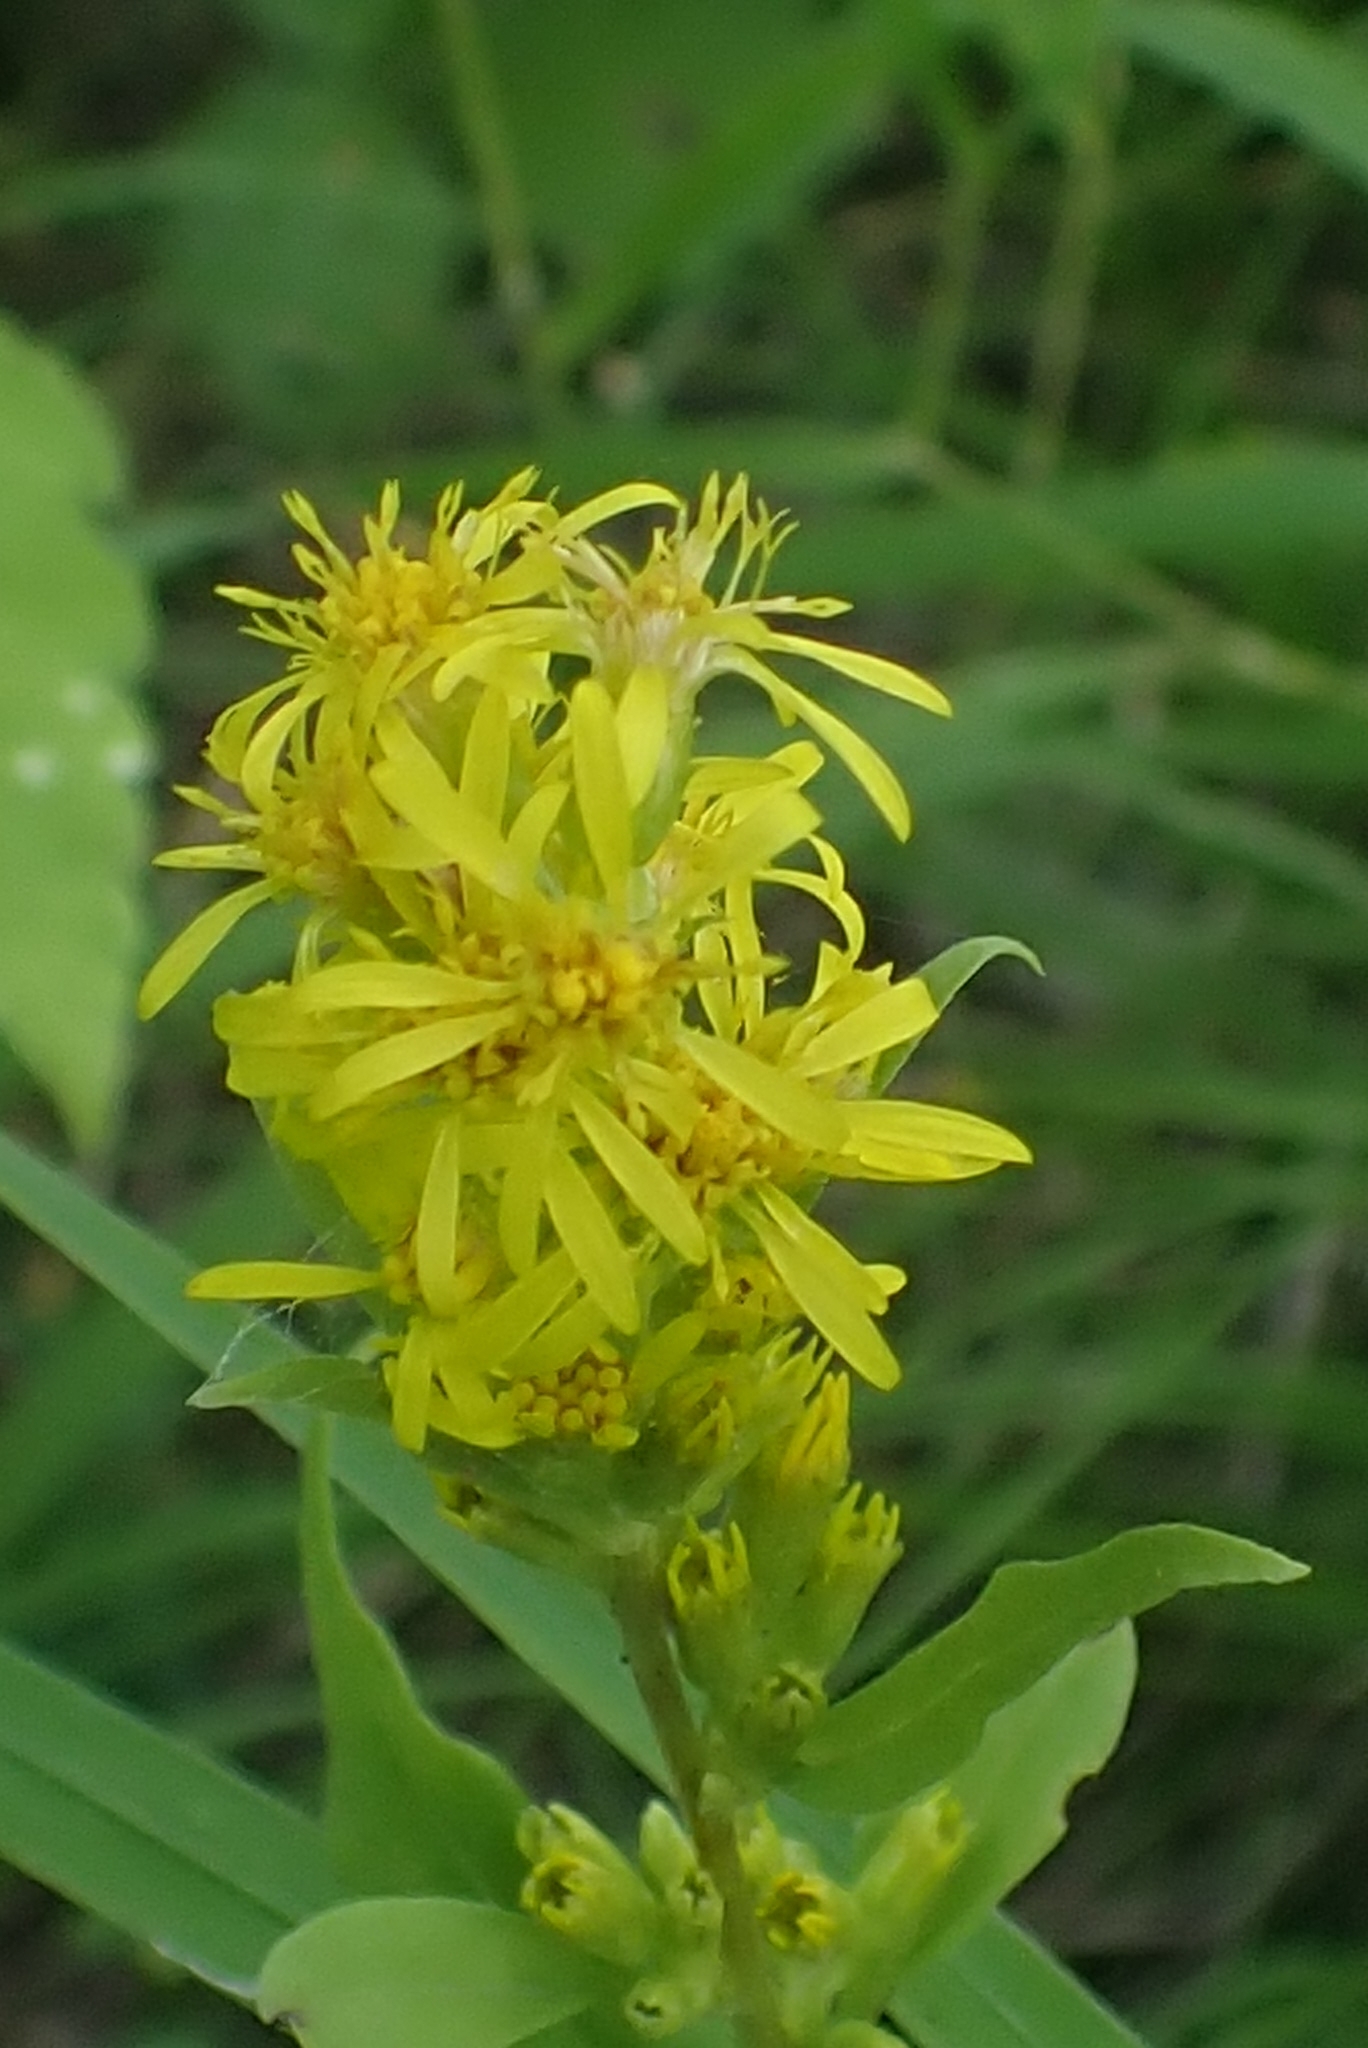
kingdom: Plantae
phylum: Tracheophyta
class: Magnoliopsida
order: Asterales
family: Asteraceae
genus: Solidago
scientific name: Solidago virgaurea
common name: Goldenrod
